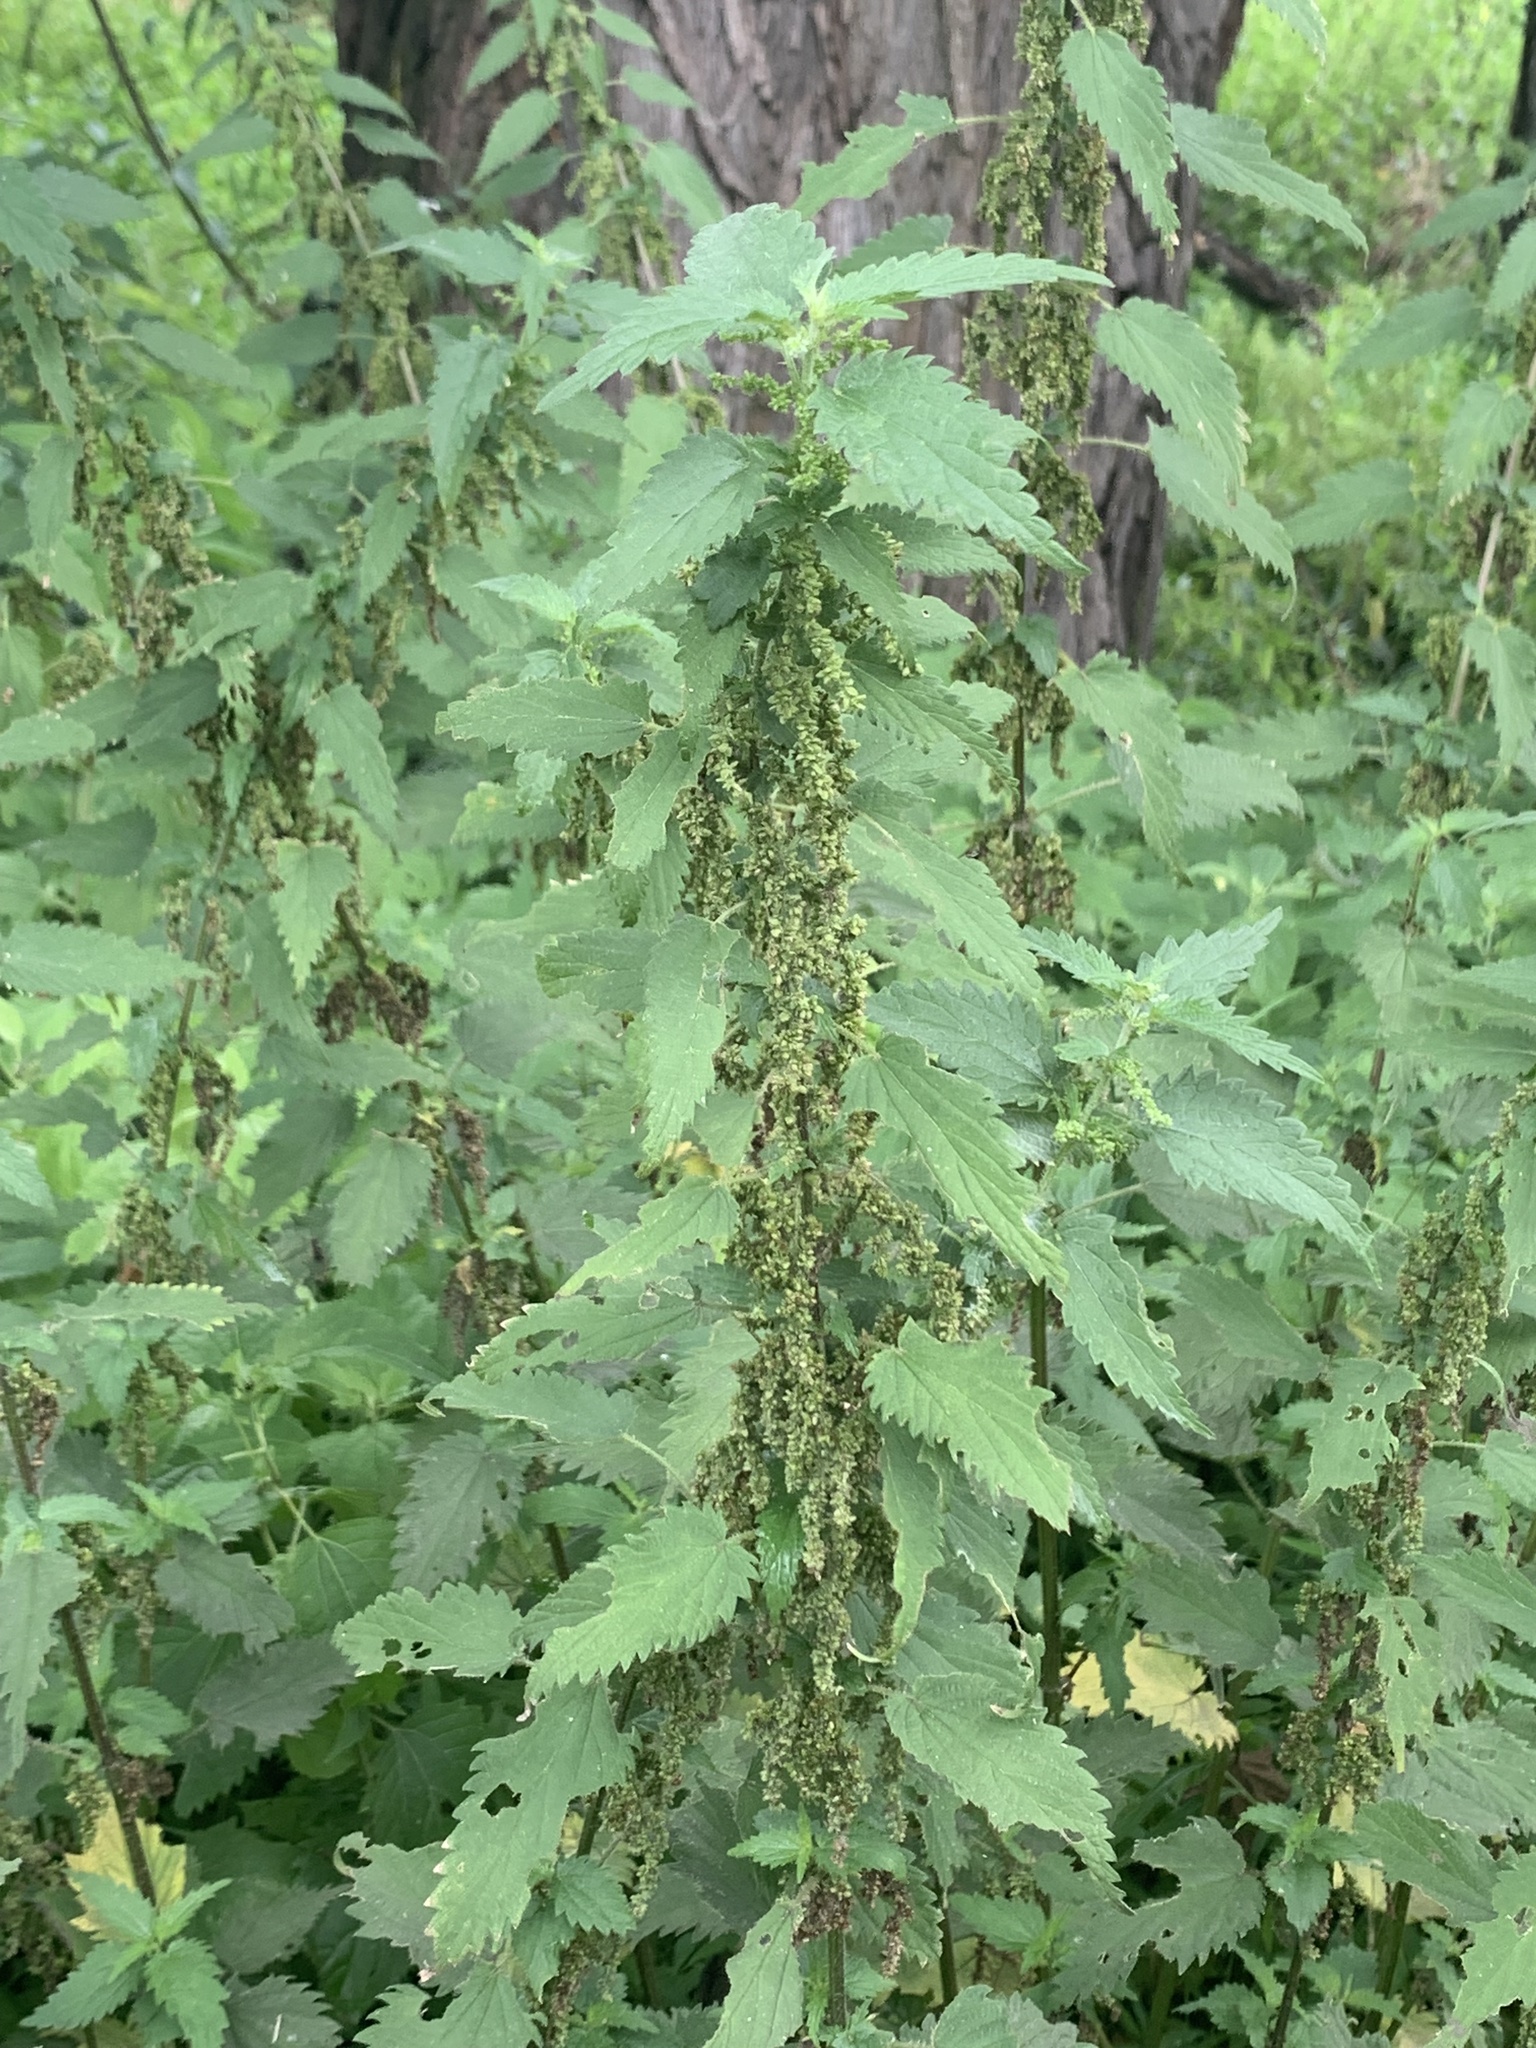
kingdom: Plantae
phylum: Tracheophyta
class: Magnoliopsida
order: Rosales
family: Urticaceae
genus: Urtica
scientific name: Urtica dioica
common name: Common nettle
